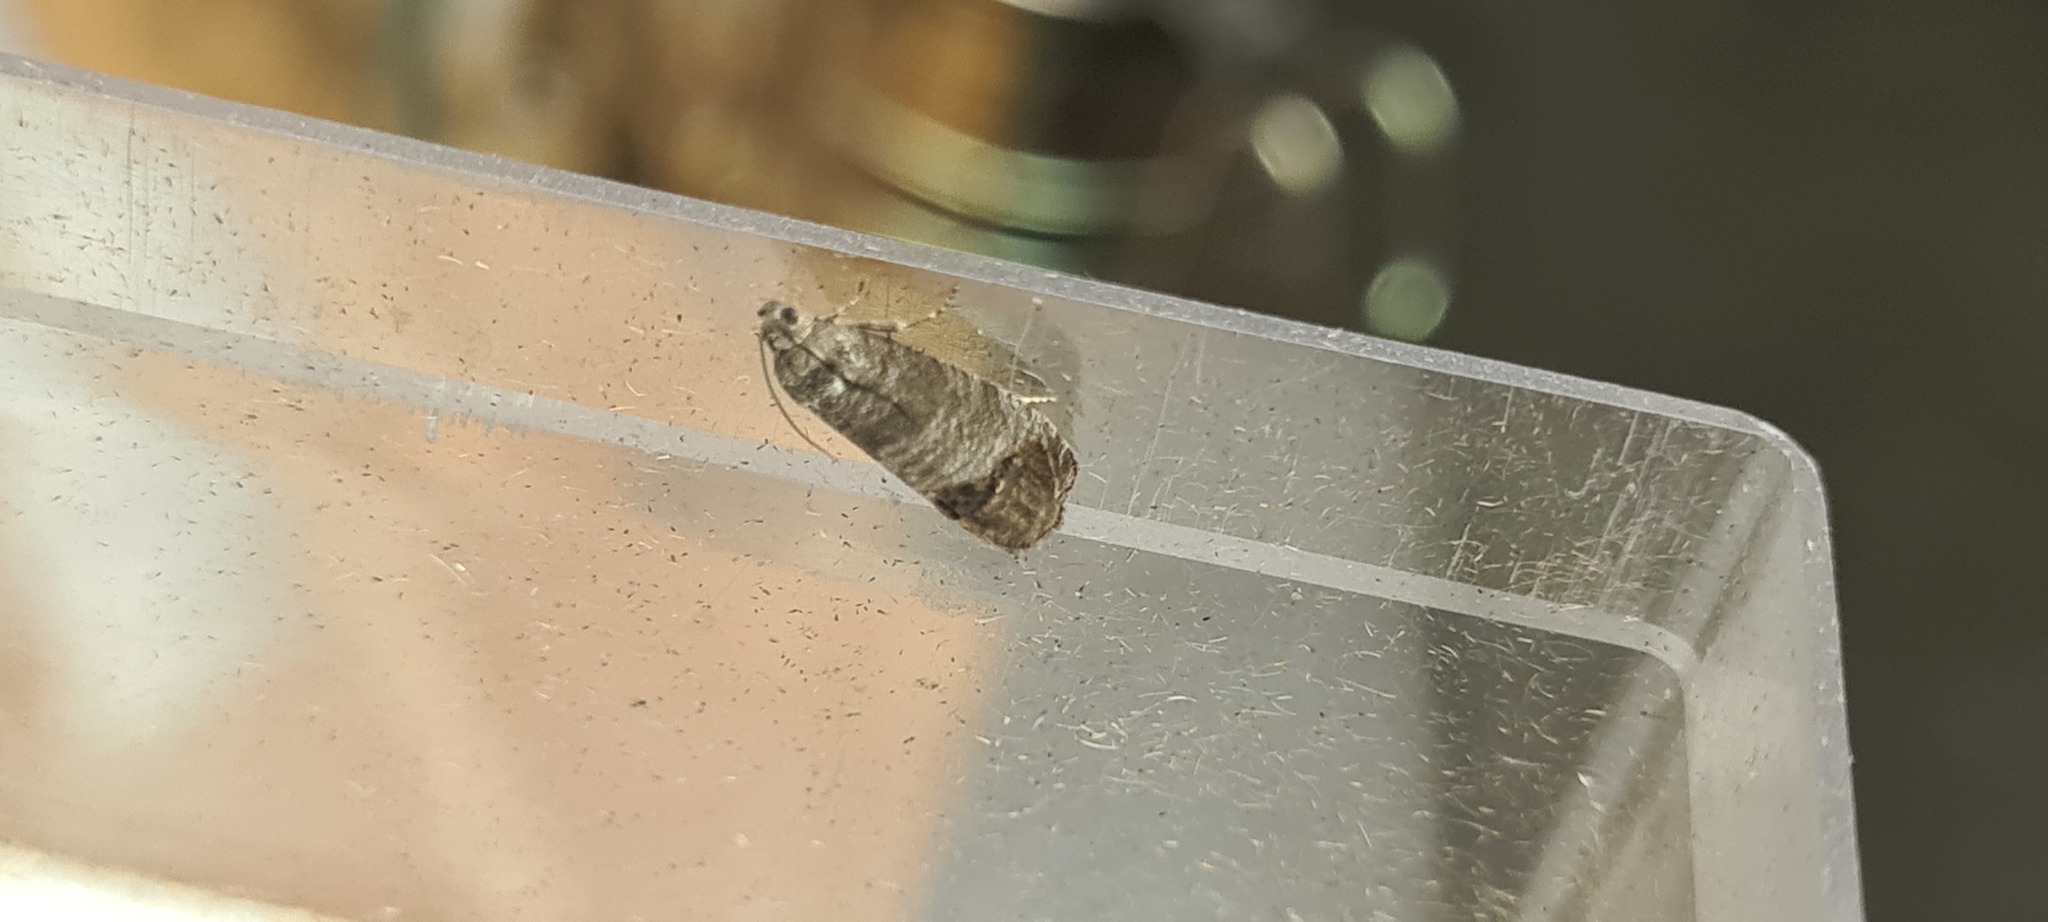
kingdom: Animalia
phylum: Arthropoda
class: Insecta
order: Lepidoptera
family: Tortricidae
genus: Cydia
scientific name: Cydia pomonella
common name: Codling moth
